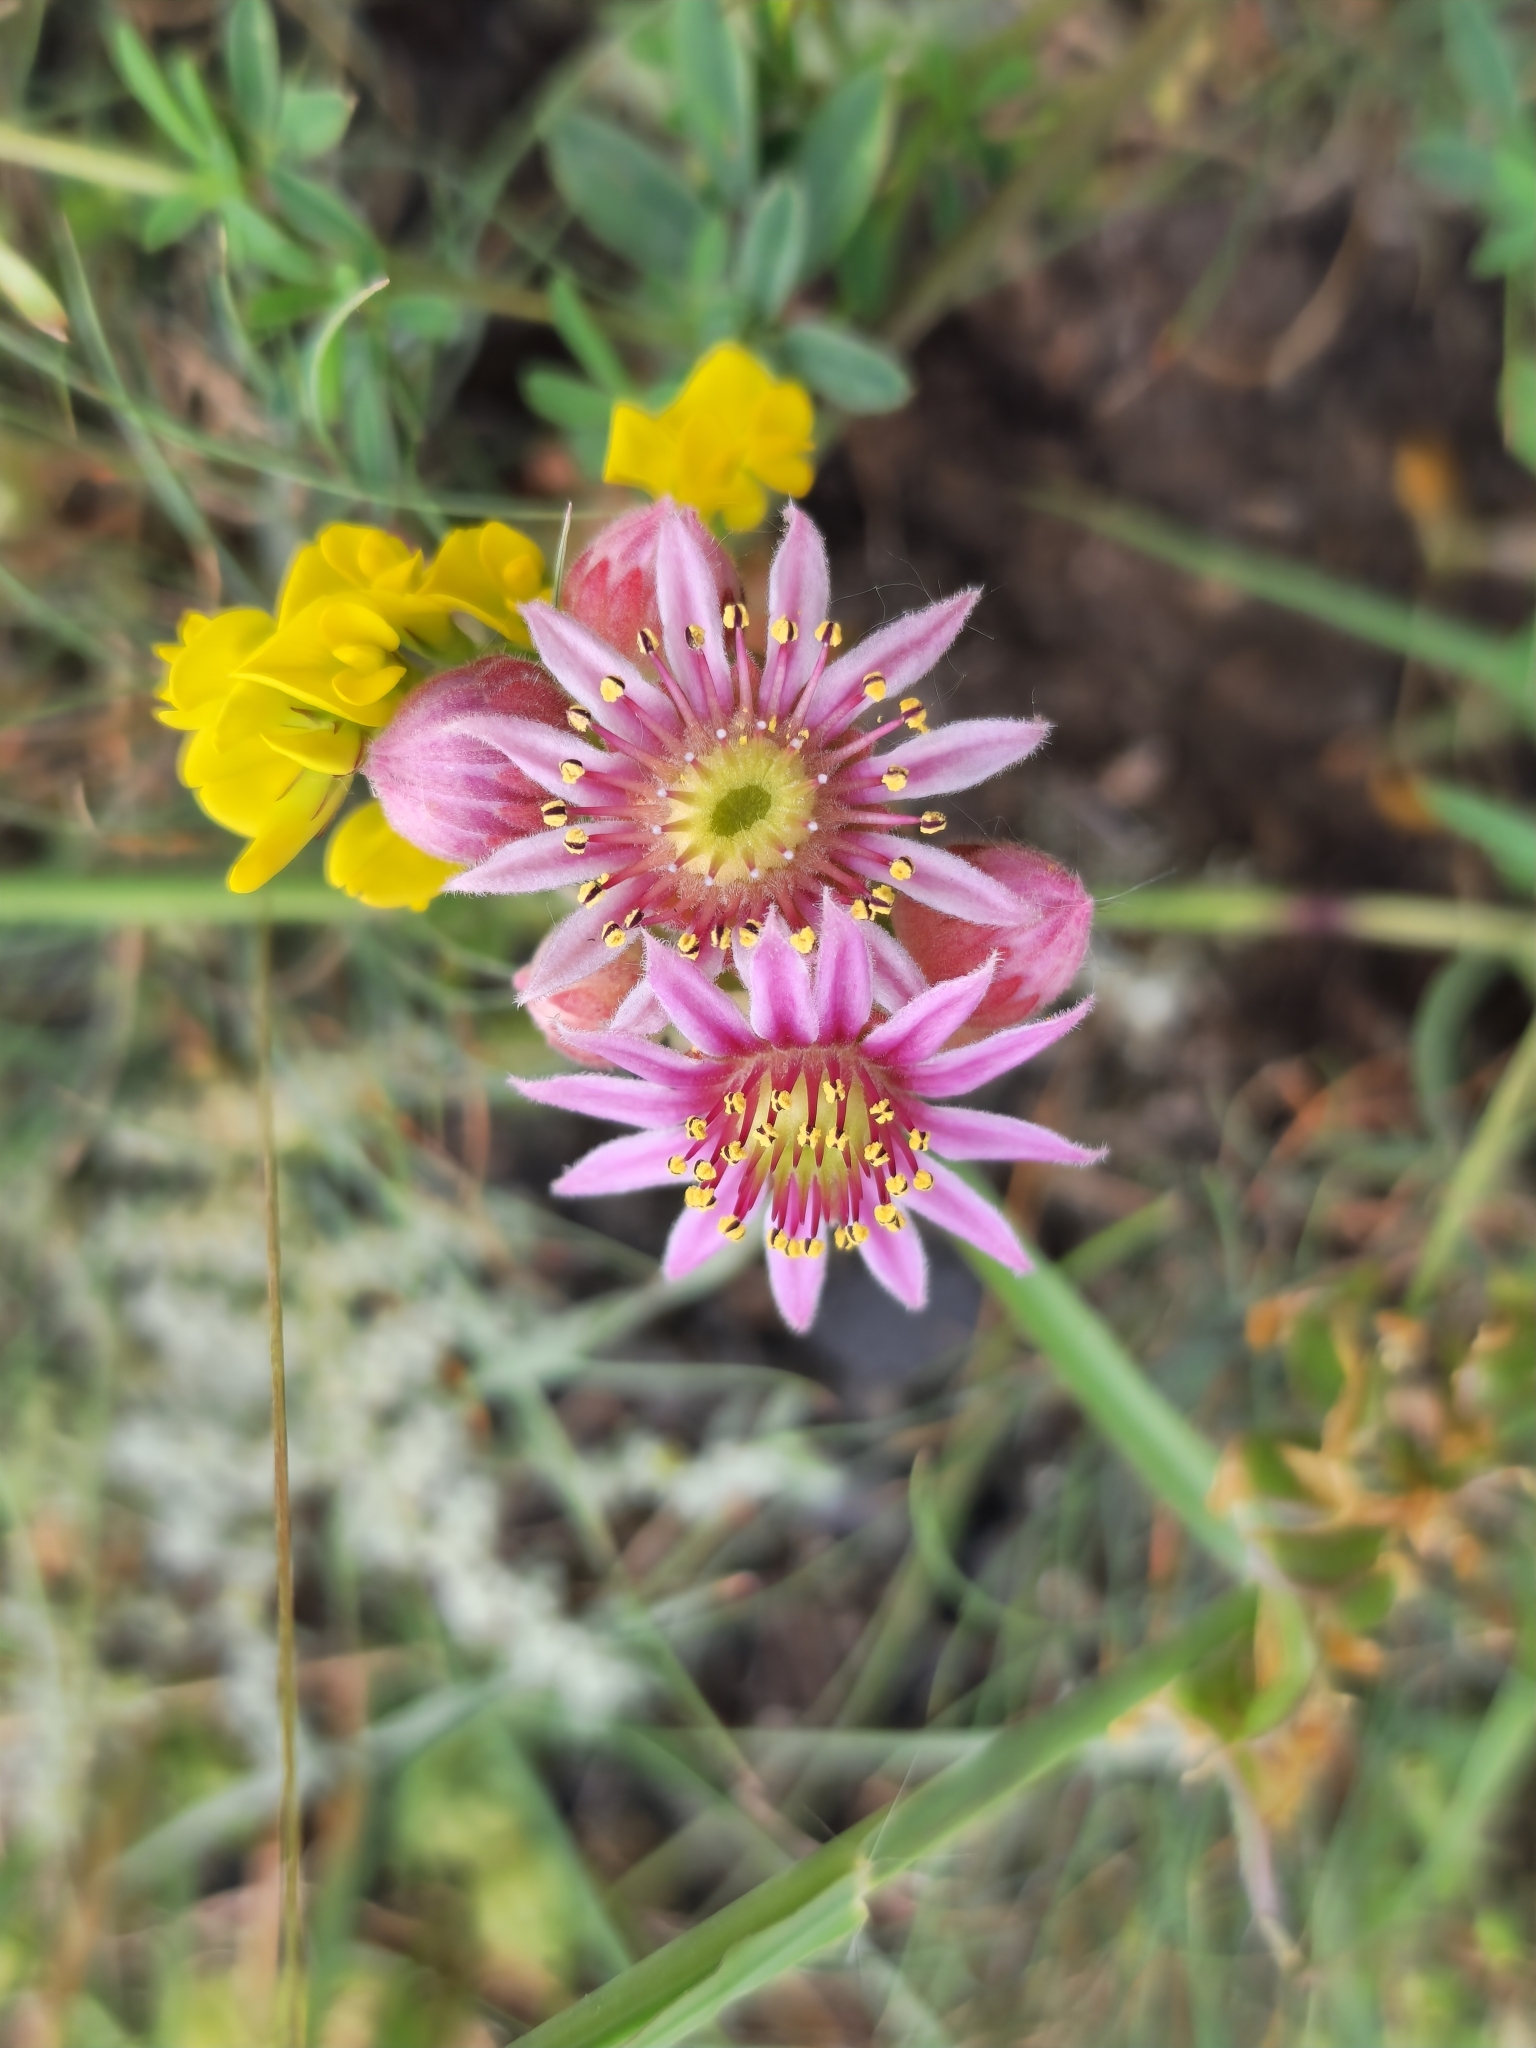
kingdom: Plantae
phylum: Tracheophyta
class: Magnoliopsida
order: Saxifragales
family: Crassulaceae
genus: Sempervivum
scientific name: Sempervivum caucasicum
